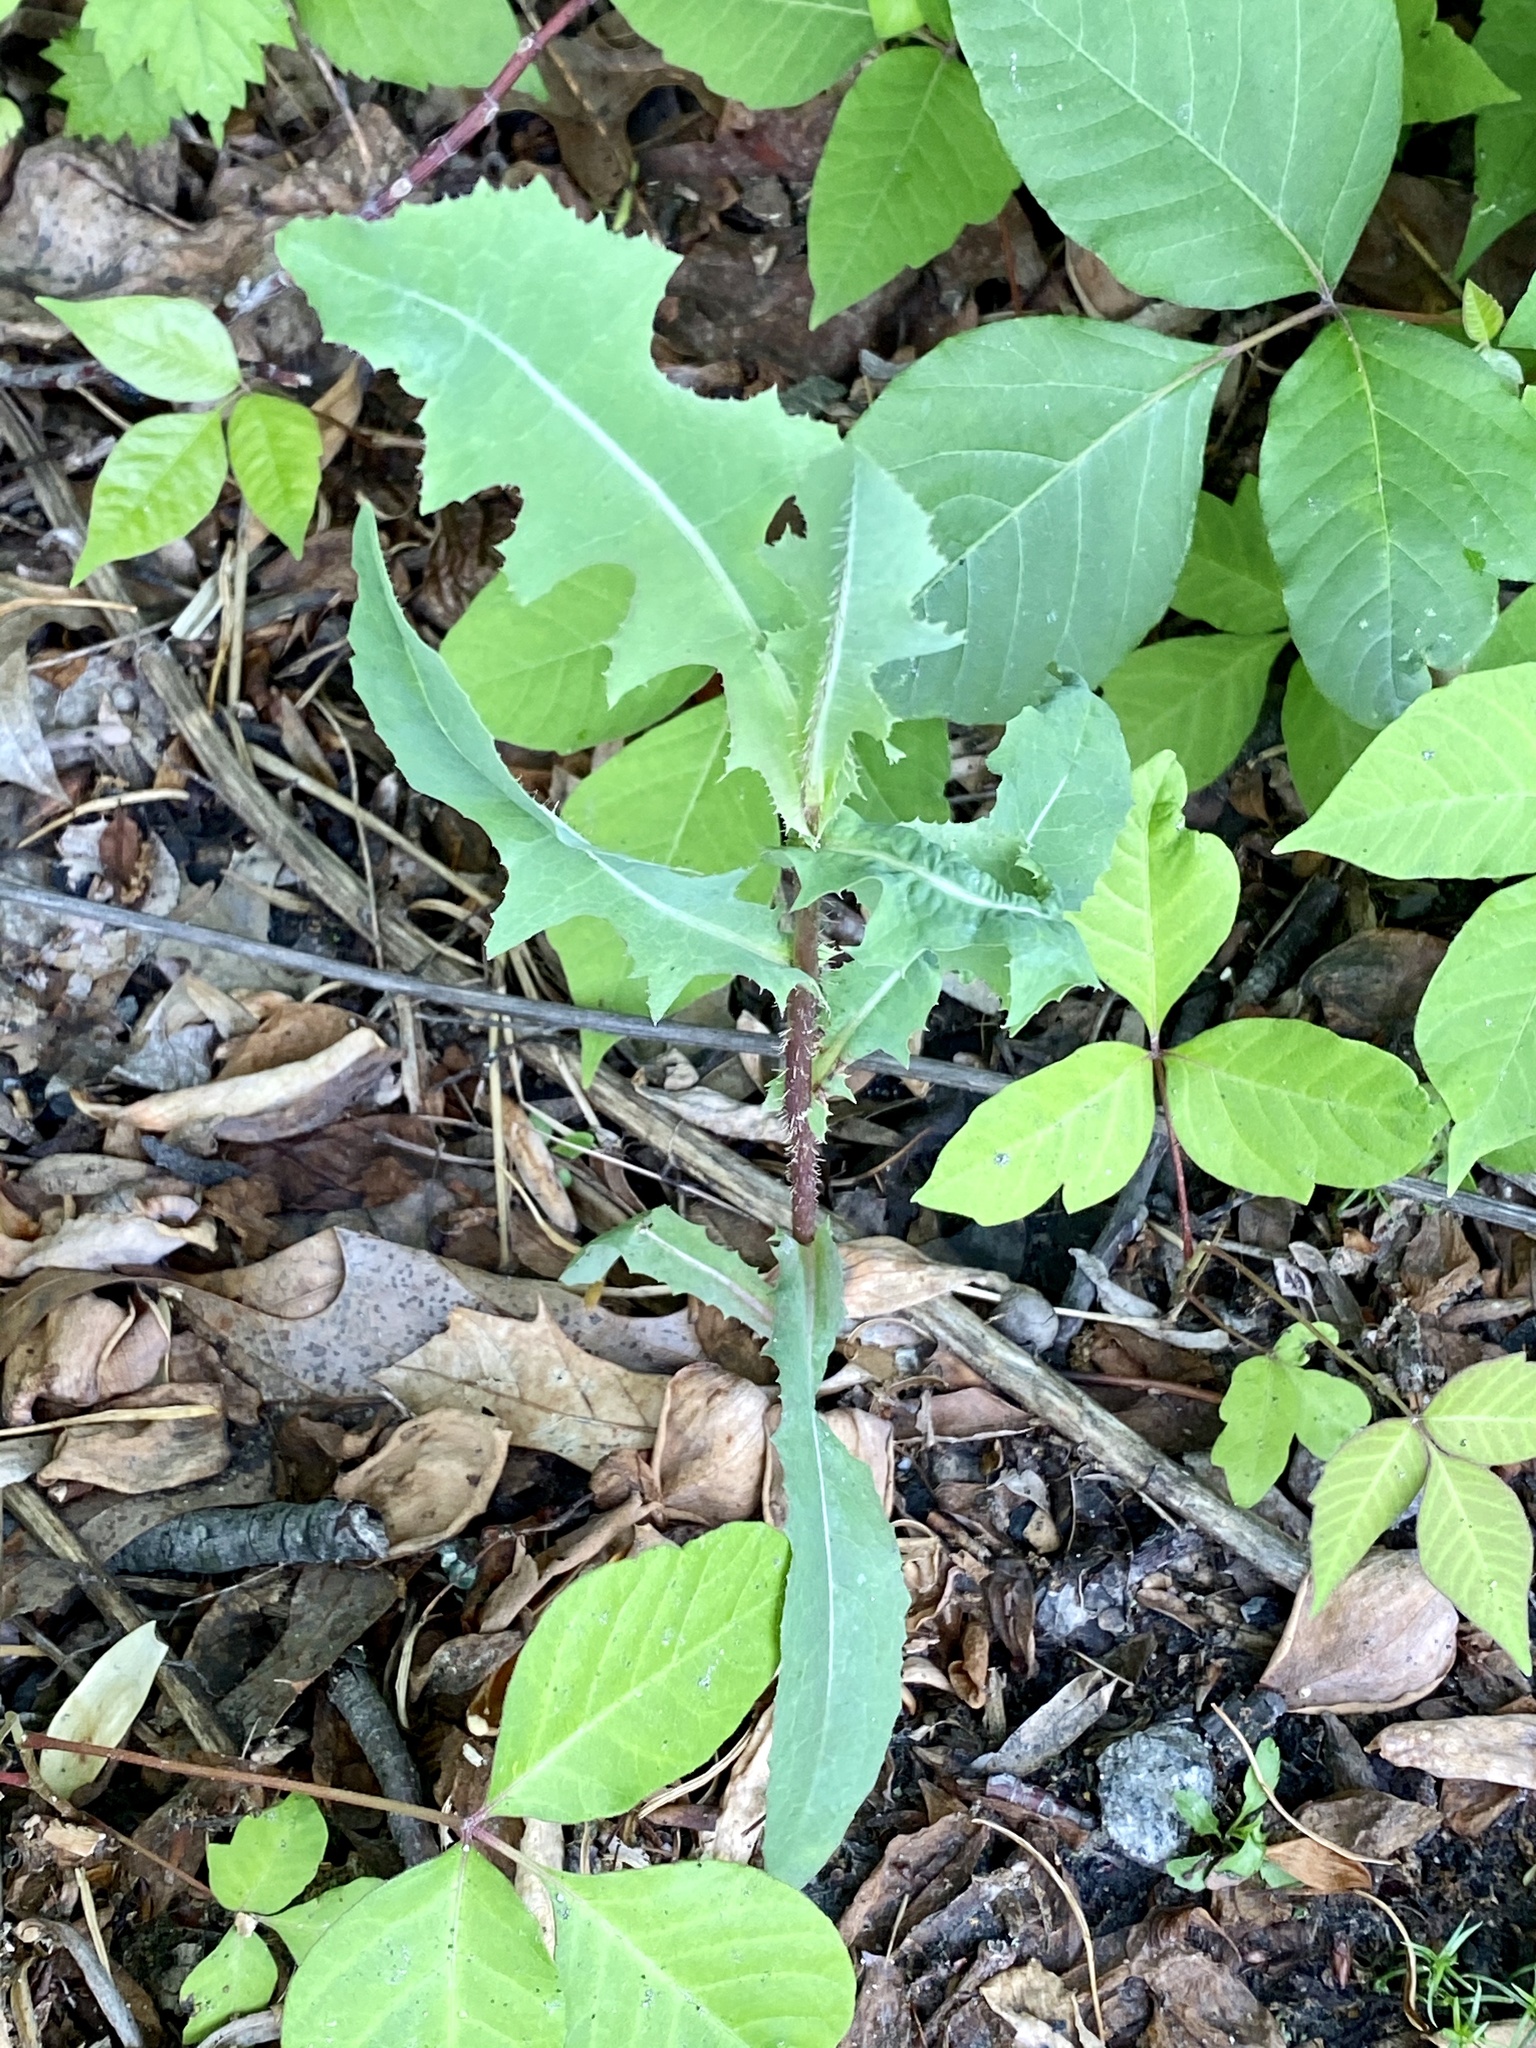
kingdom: Plantae
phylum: Tracheophyta
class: Magnoliopsida
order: Asterales
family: Asteraceae
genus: Lactuca
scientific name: Lactuca serriola
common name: Prickly lettuce
